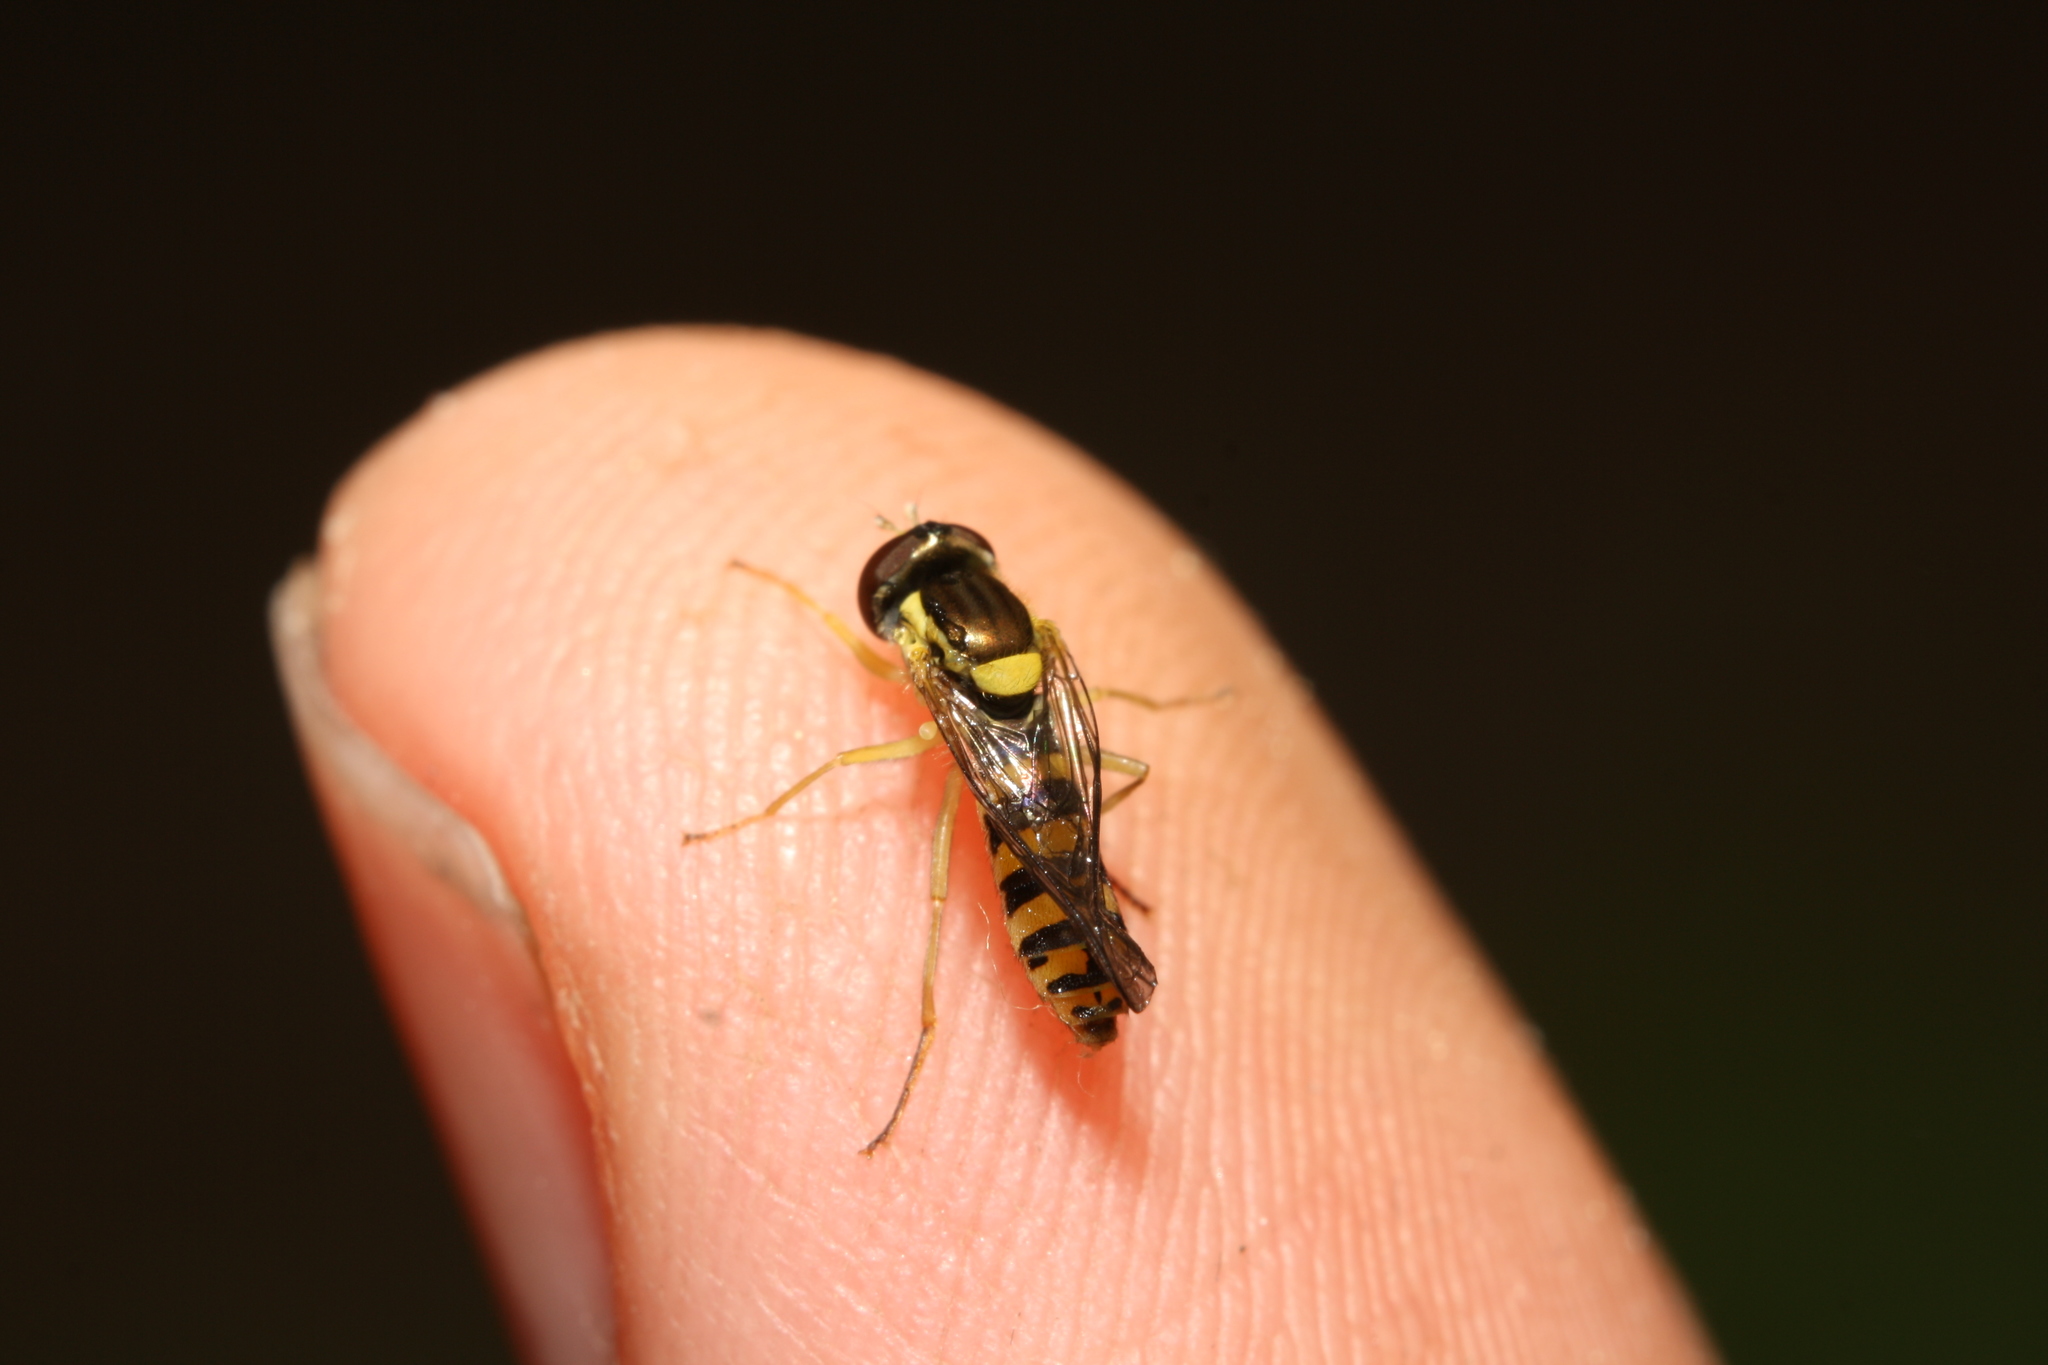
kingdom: Animalia
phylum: Arthropoda
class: Insecta
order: Diptera
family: Syrphidae
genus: Sphaerophoria
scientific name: Sphaerophoria
